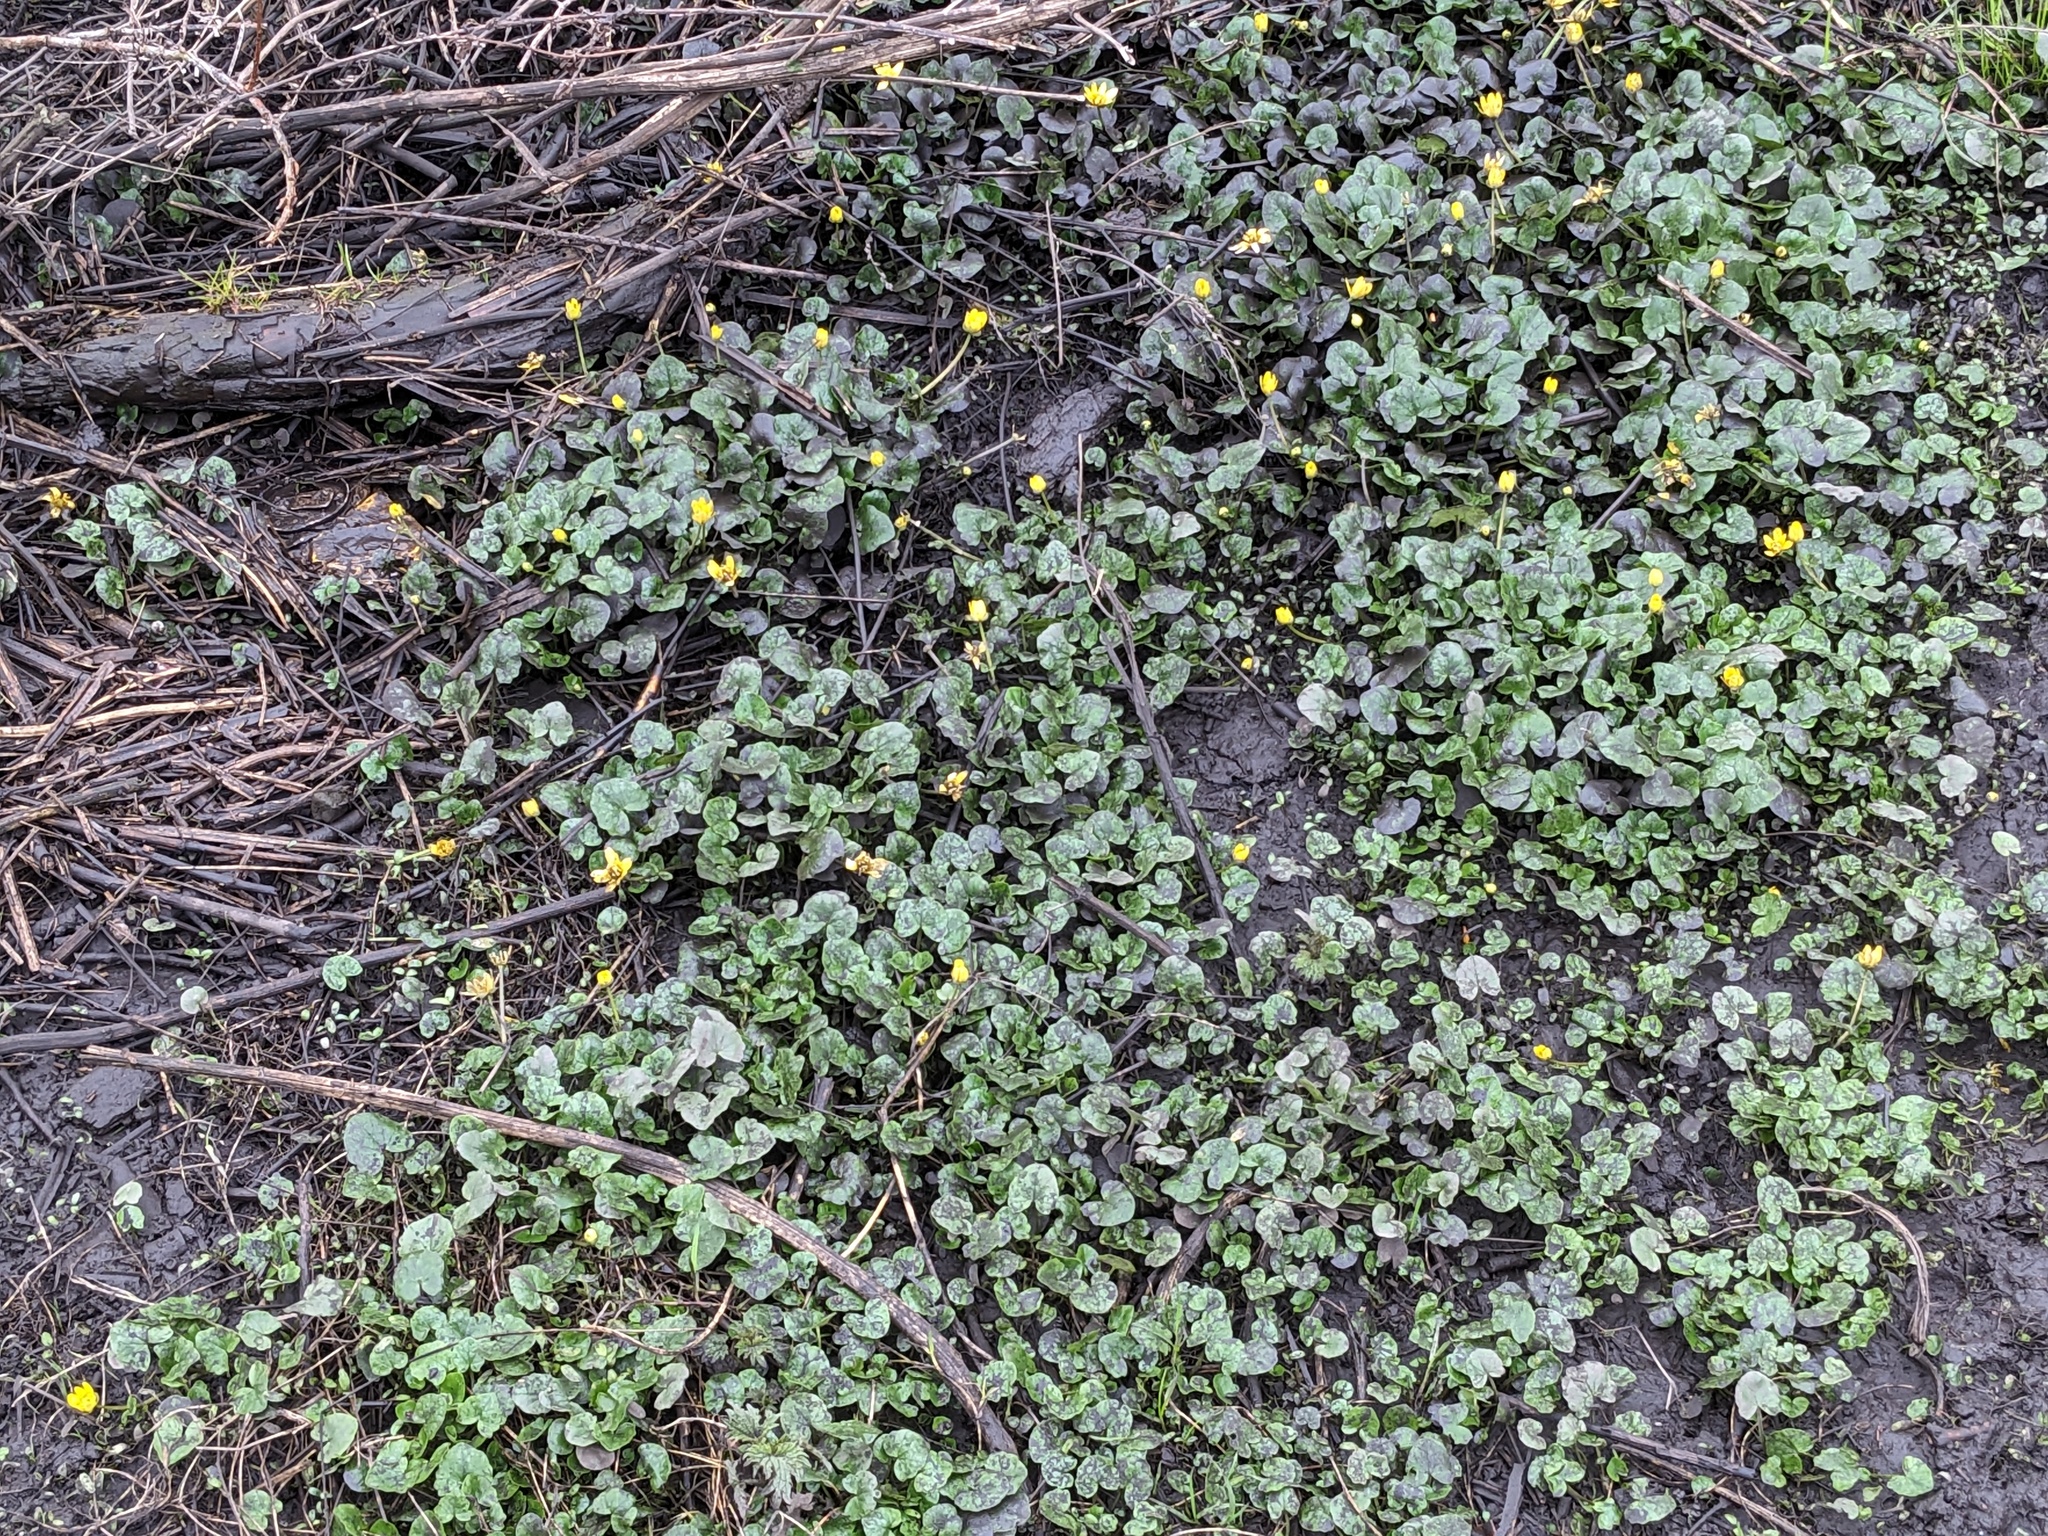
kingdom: Plantae
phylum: Tracheophyta
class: Magnoliopsida
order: Ranunculales
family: Ranunculaceae
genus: Ficaria
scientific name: Ficaria verna
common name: Lesser celandine
